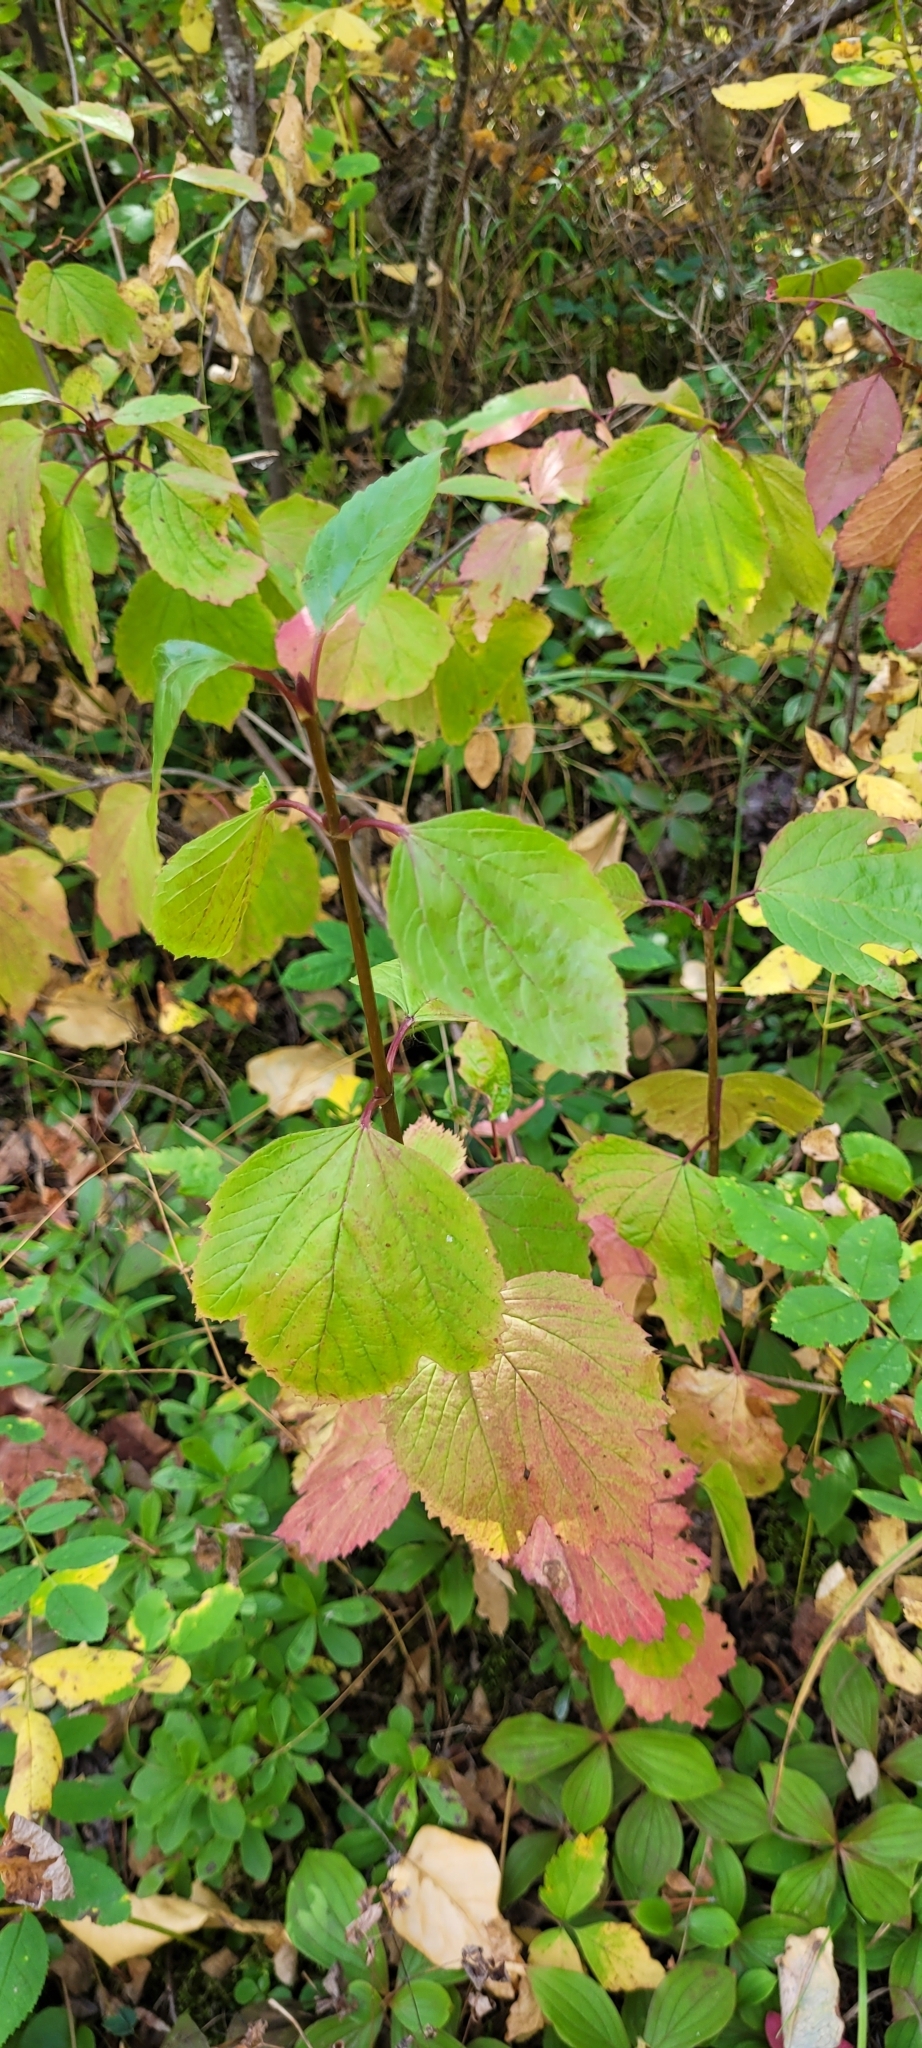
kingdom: Plantae
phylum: Tracheophyta
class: Magnoliopsida
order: Dipsacales
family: Viburnaceae
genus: Viburnum
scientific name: Viburnum edule
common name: Mooseberry
